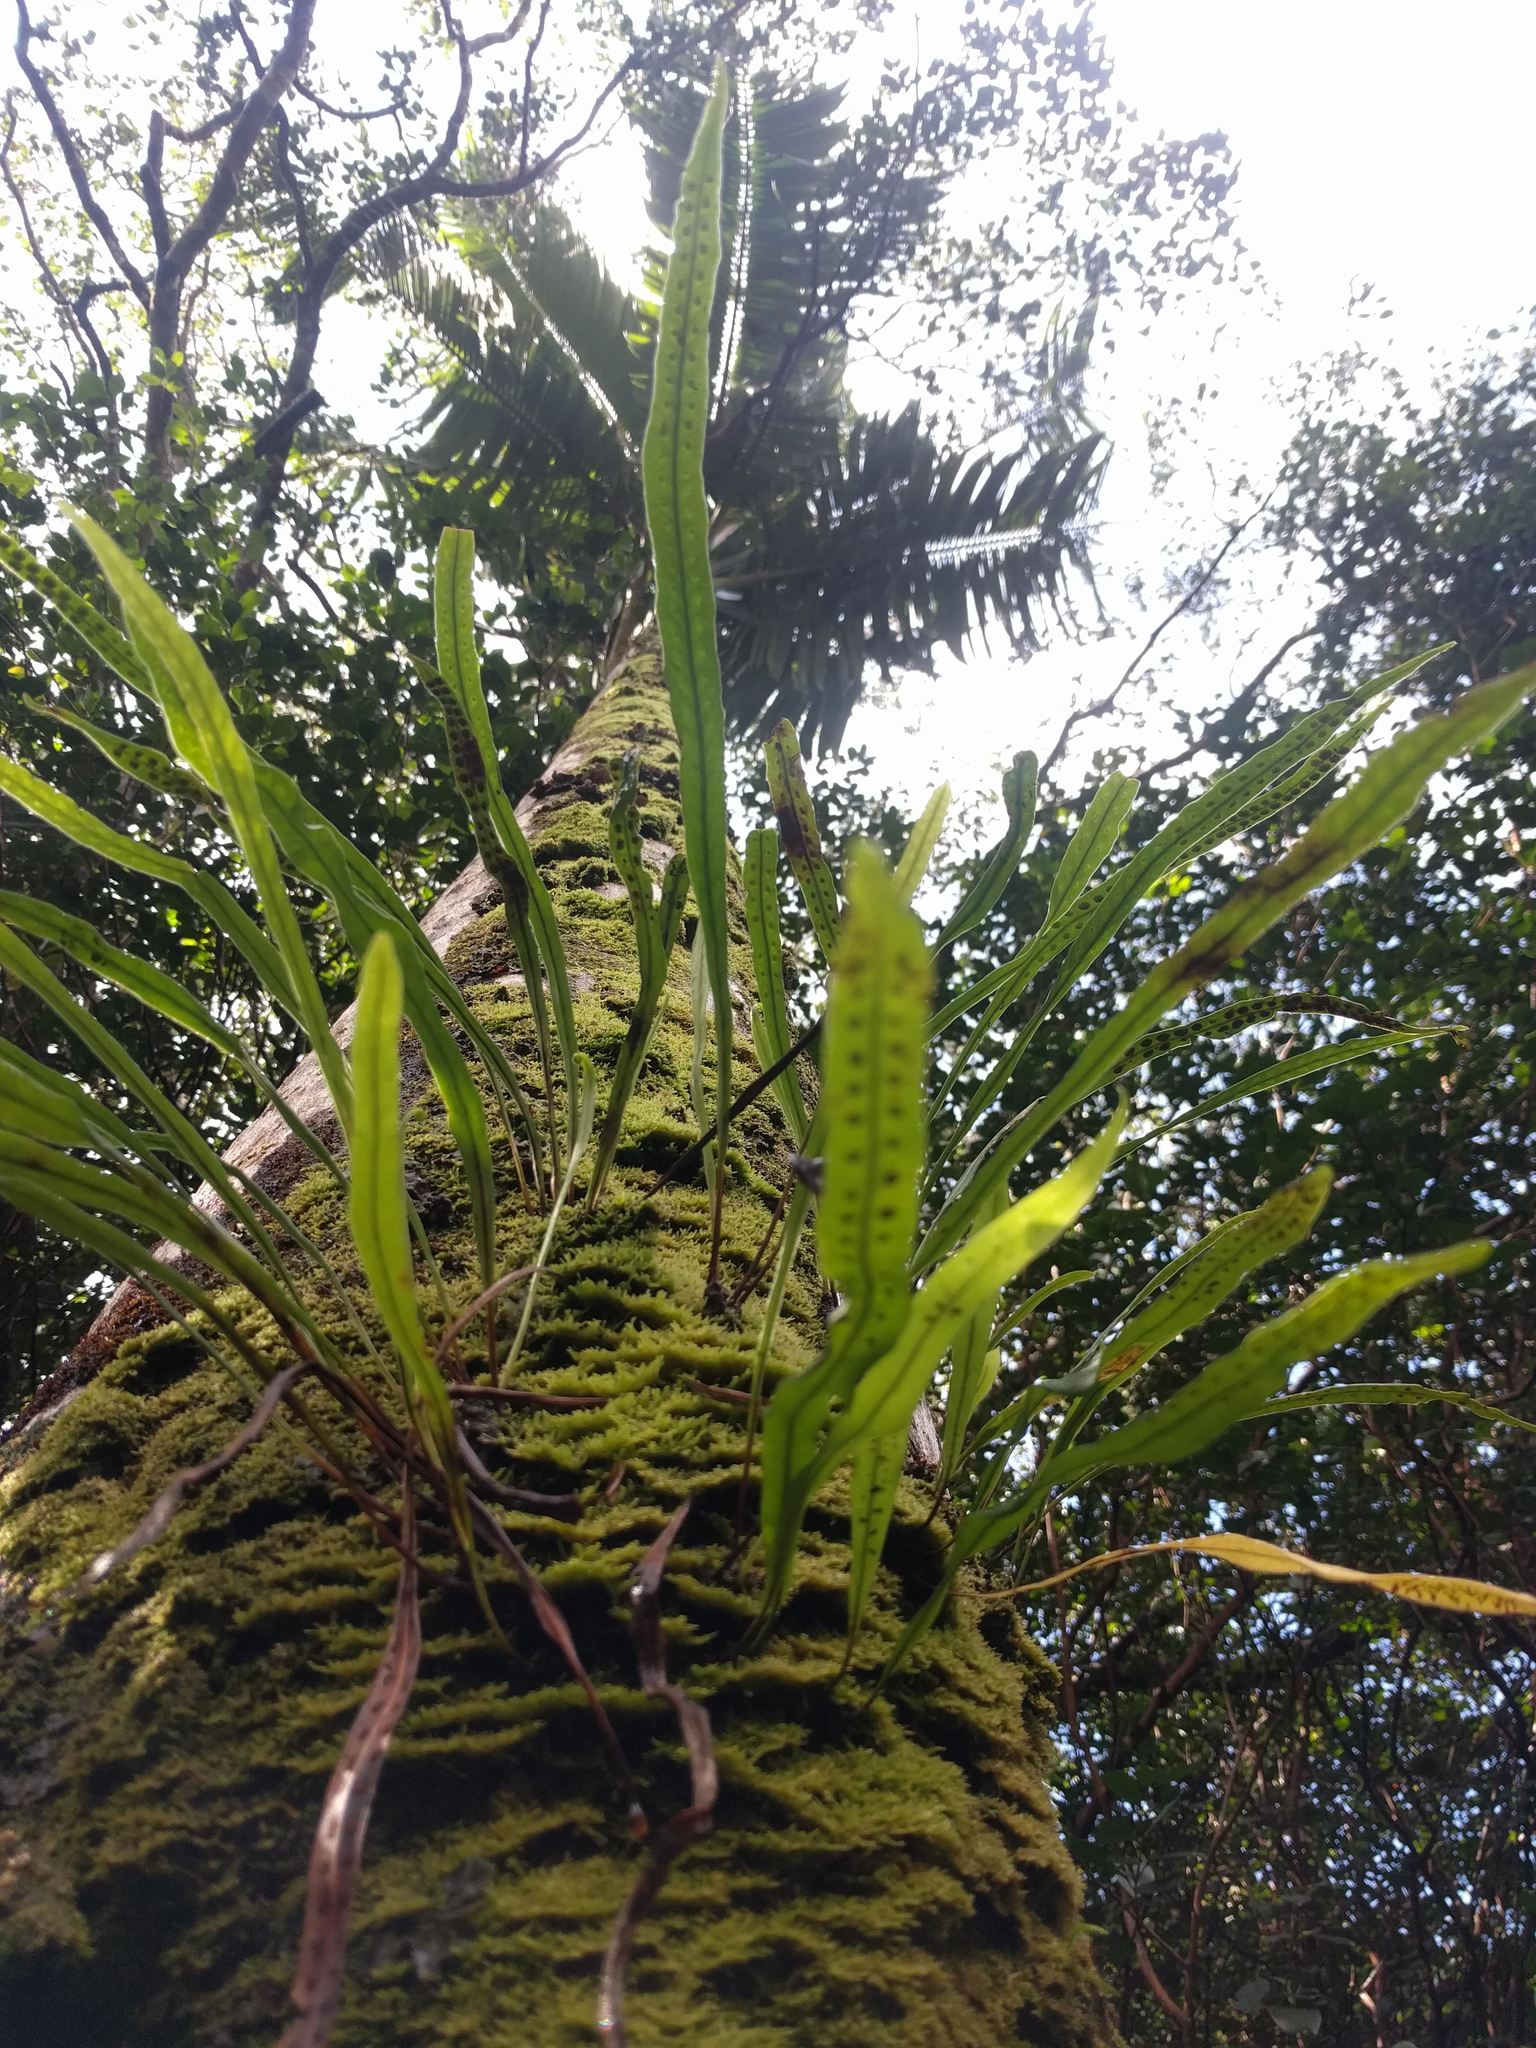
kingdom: Plantae
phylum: Tracheophyta
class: Polypodiopsida
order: Polypodiales
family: Polypodiaceae
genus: Lepisorus
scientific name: Lepisorus thunbergianus
